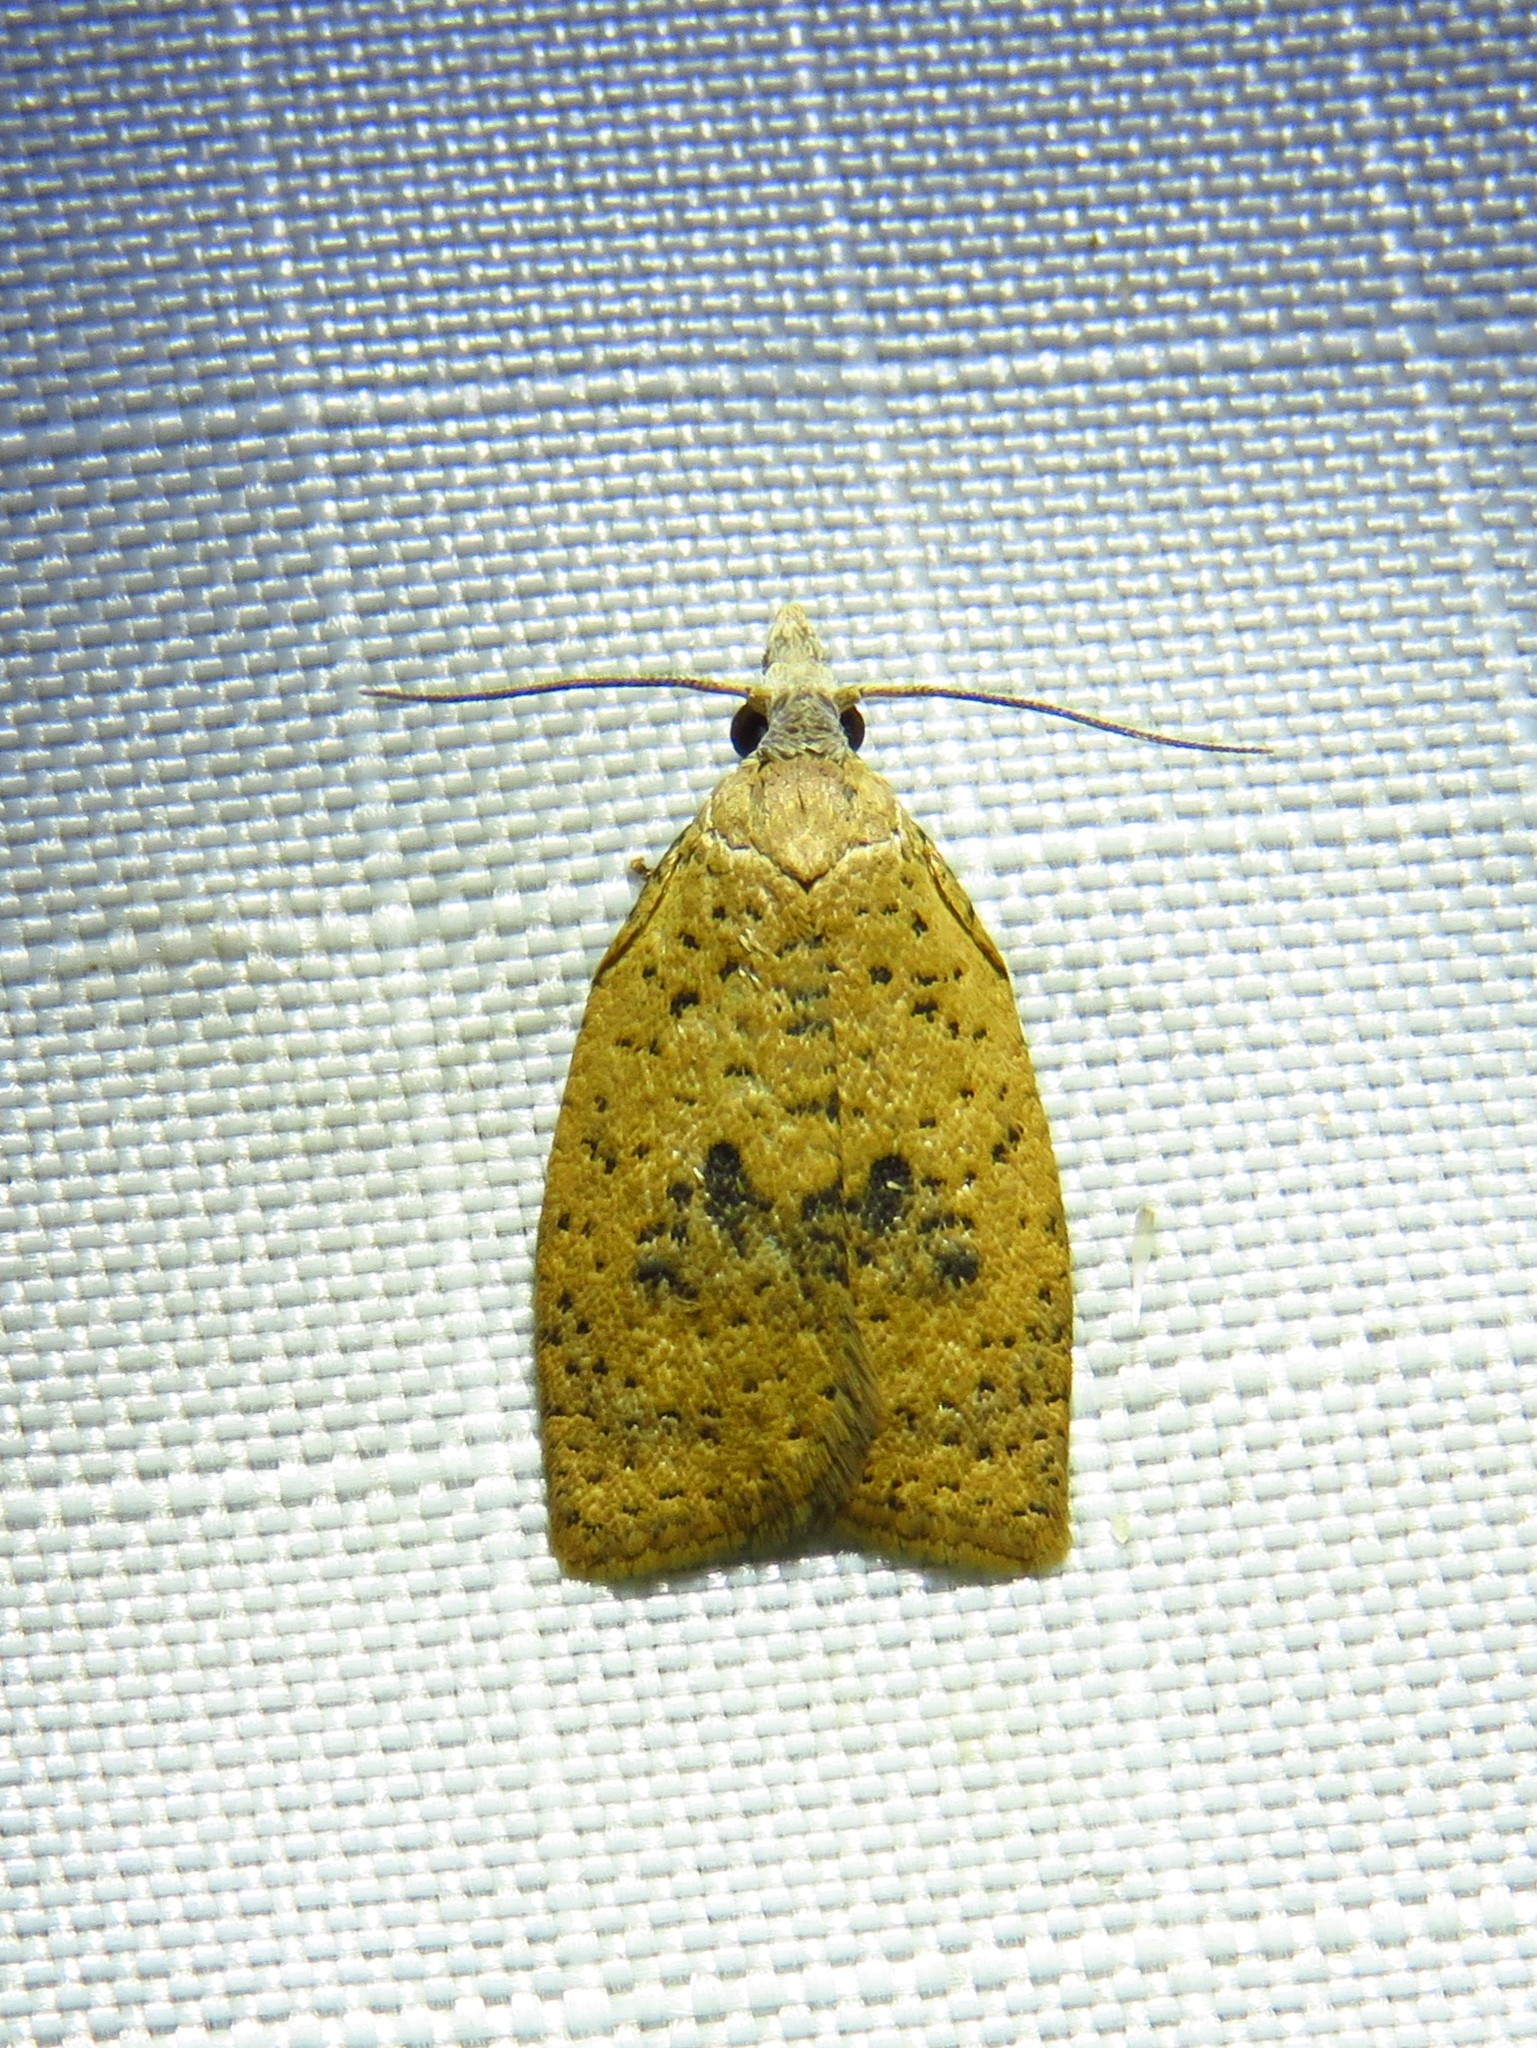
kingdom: Animalia
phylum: Arthropoda
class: Insecta
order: Lepidoptera
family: Tortricidae
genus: Sparganothoides
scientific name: Sparganothoides lentiginosana
